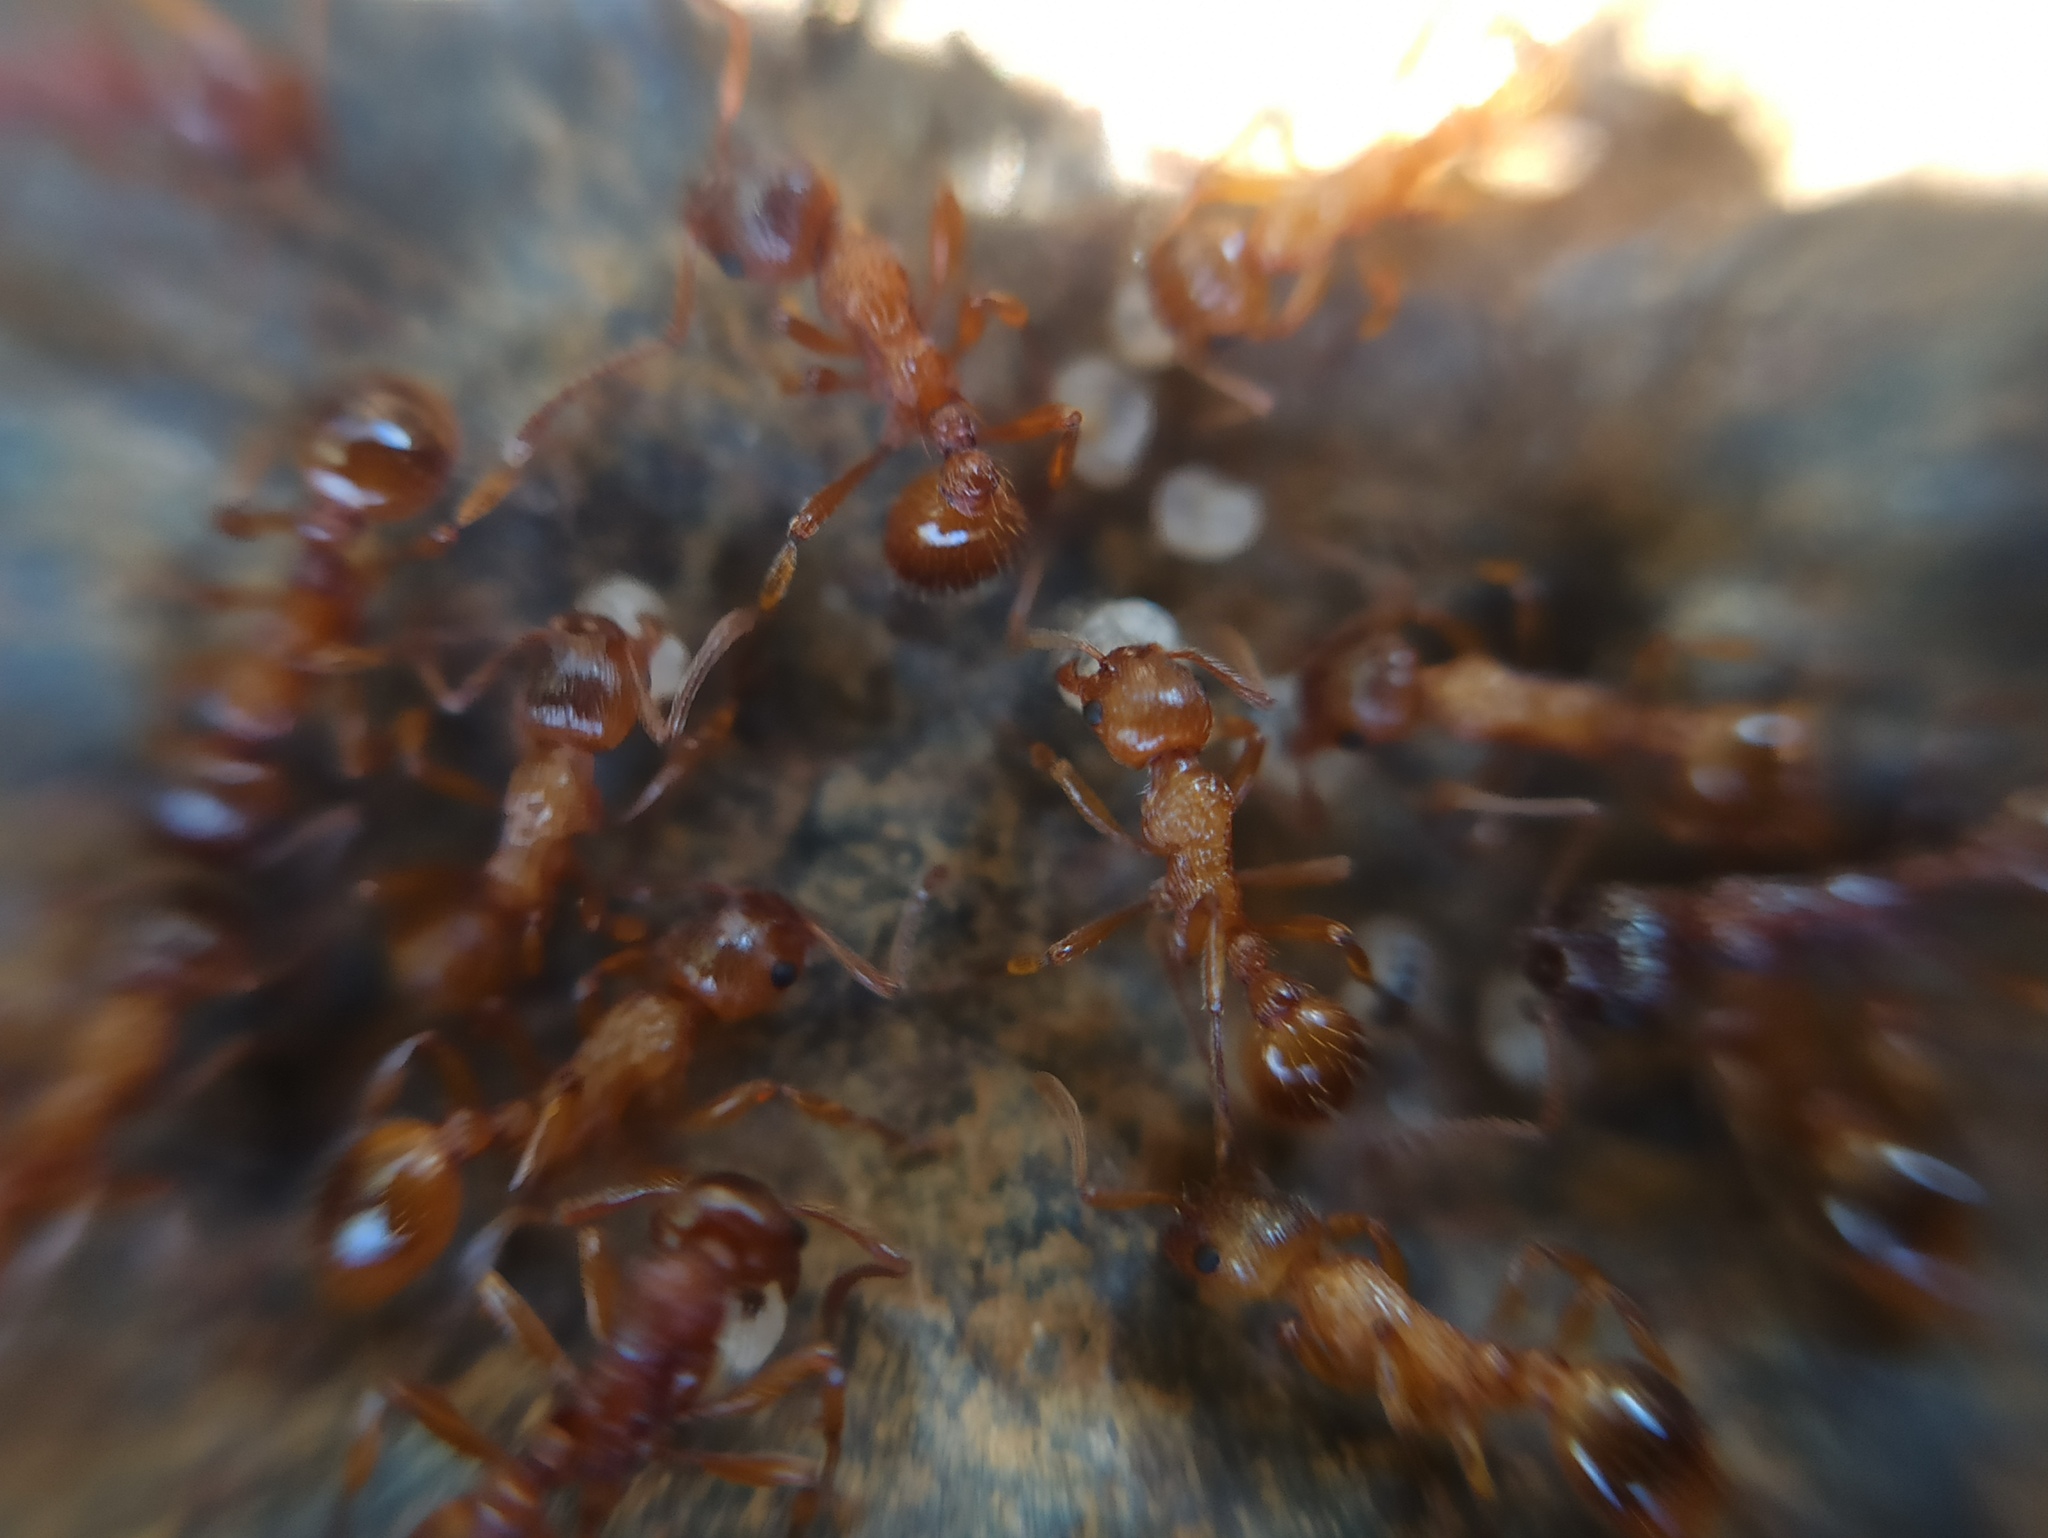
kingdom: Animalia
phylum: Arthropoda
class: Insecta
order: Hymenoptera
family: Formicidae
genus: Myrmica
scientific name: Myrmica ruginodis
